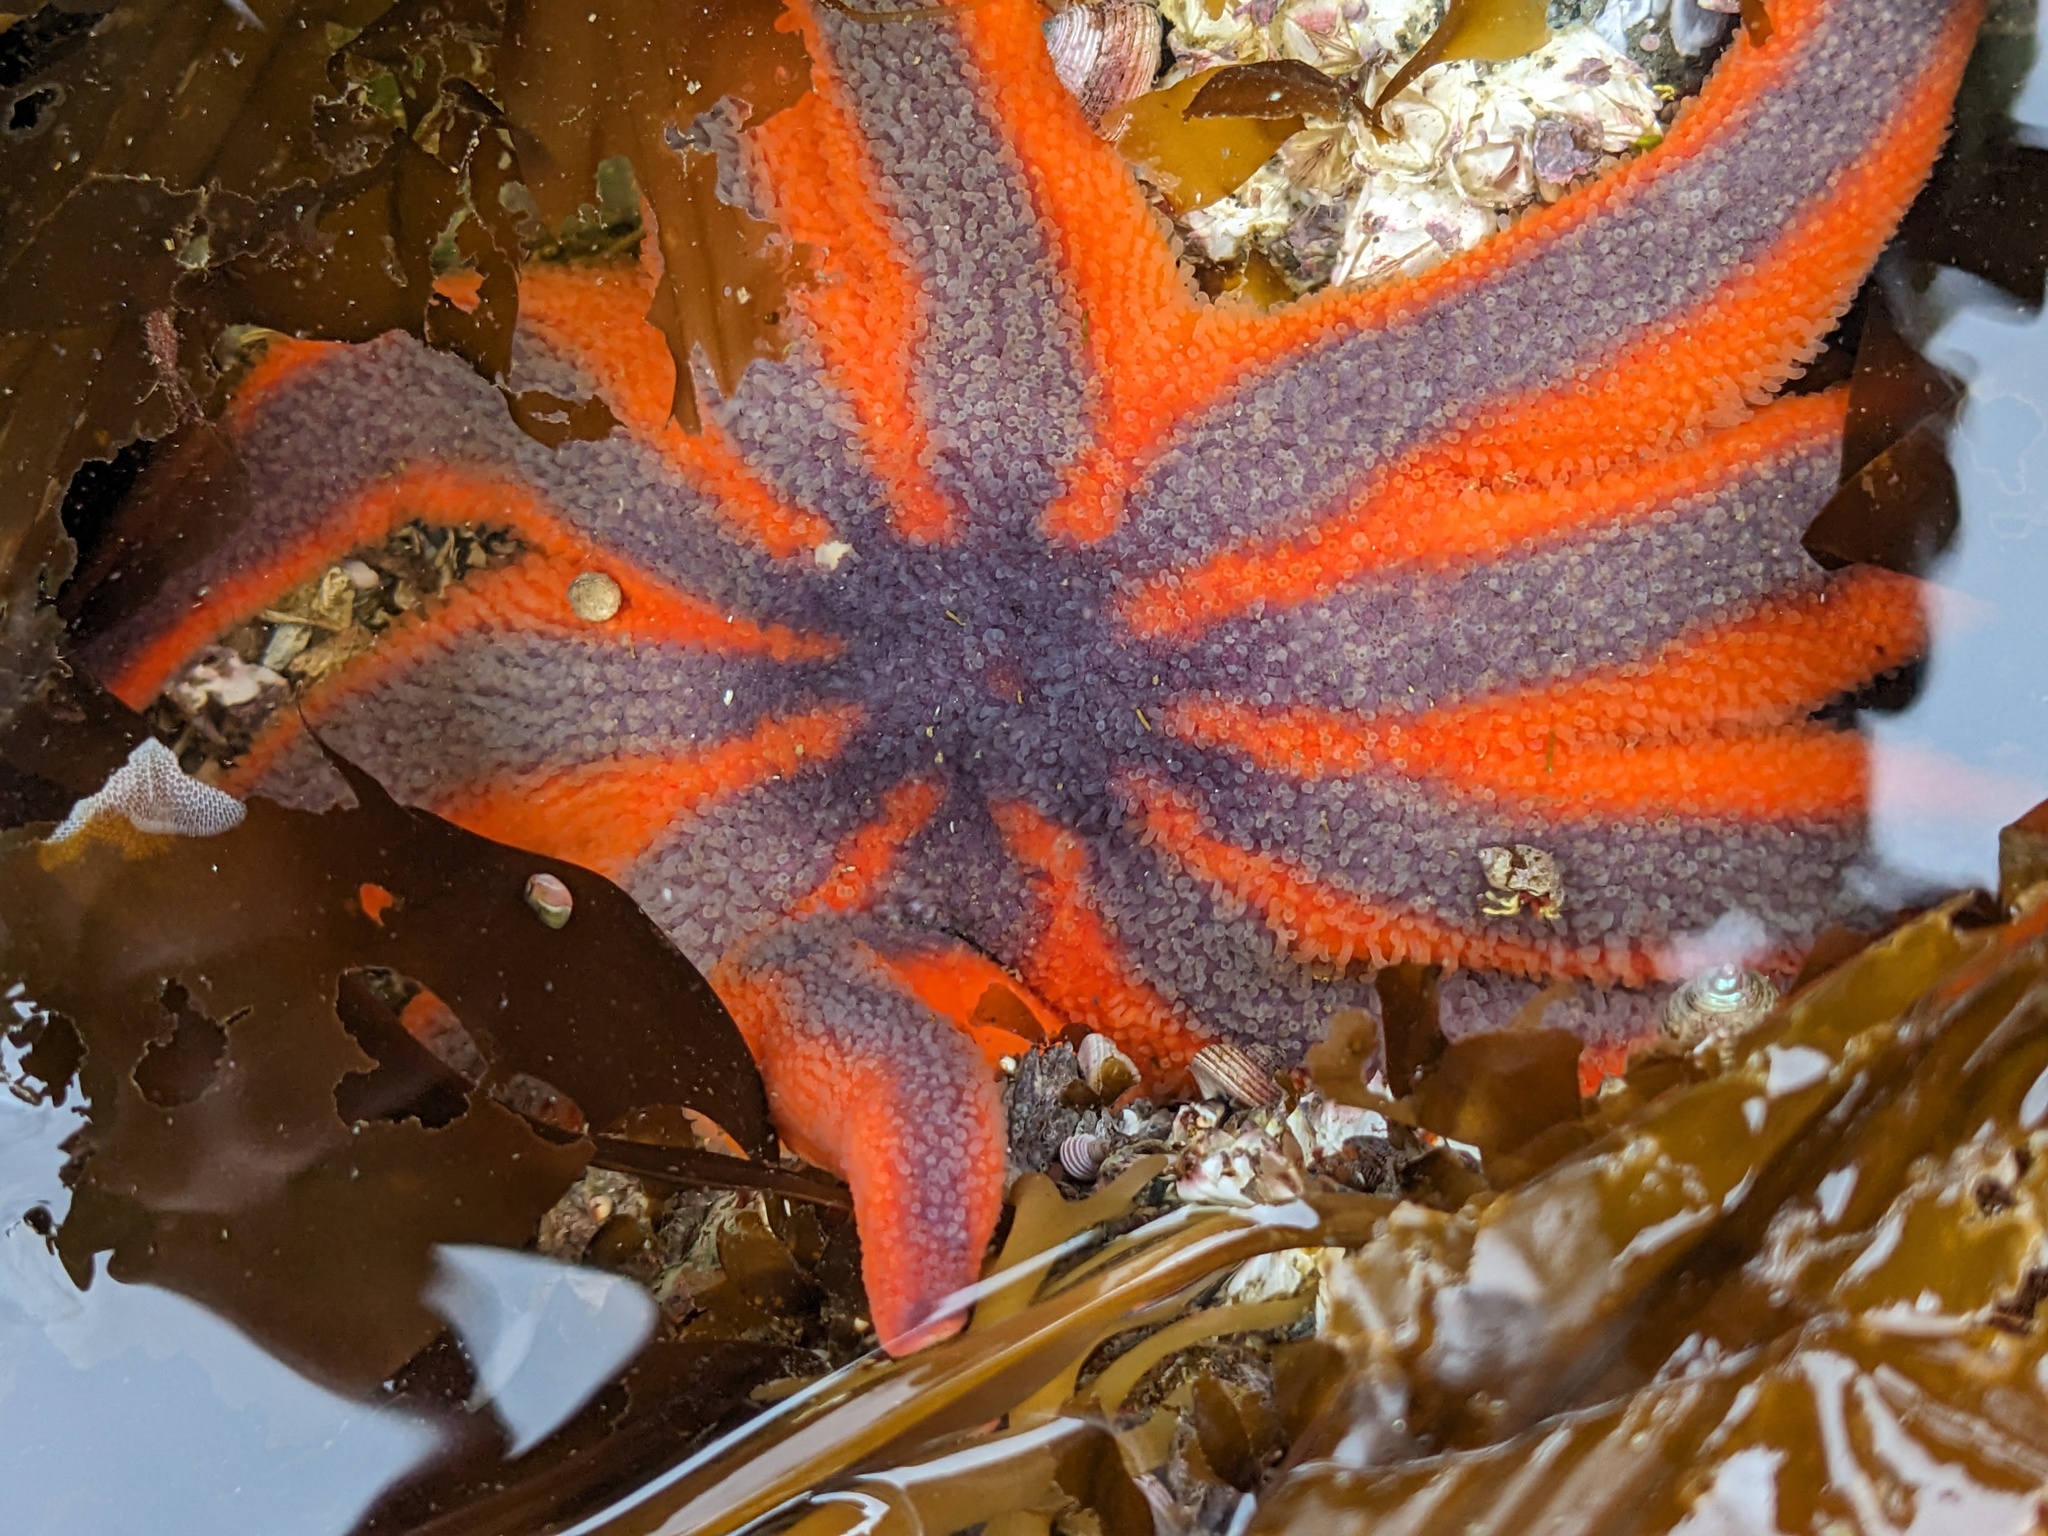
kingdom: Animalia
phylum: Echinodermata
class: Asteroidea
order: Valvatida
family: Solasteridae
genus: Solaster
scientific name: Solaster stimpsoni
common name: Orange sun star
